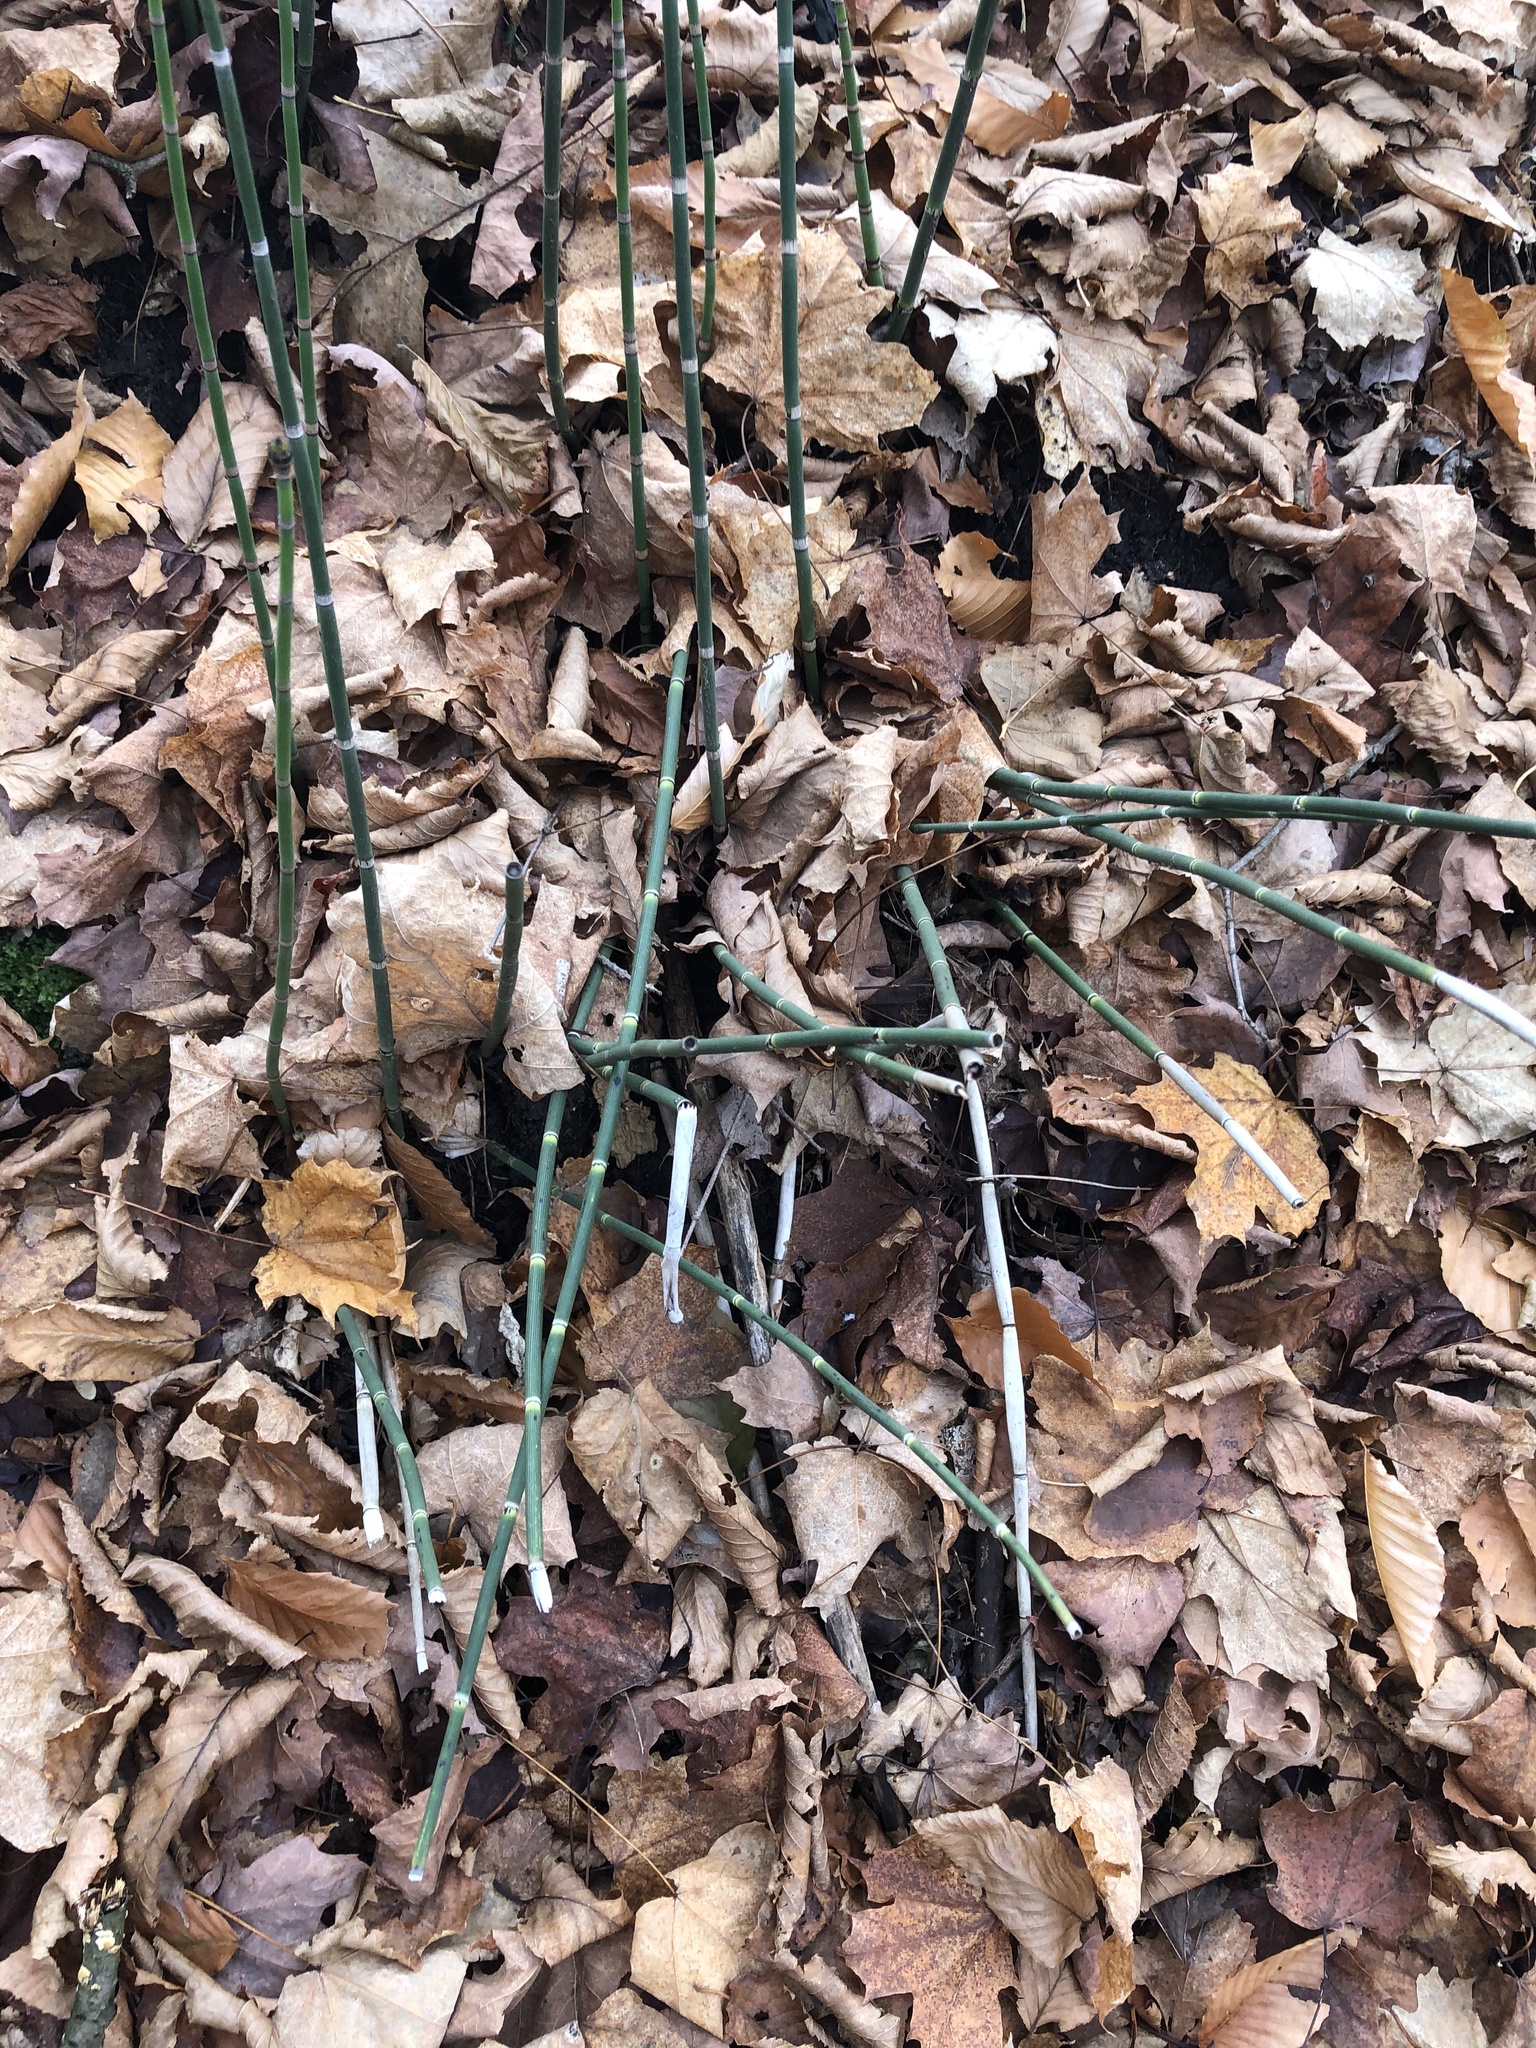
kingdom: Plantae
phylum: Tracheophyta
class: Polypodiopsida
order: Equisetales
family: Equisetaceae
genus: Equisetum
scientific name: Equisetum hyemale
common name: Rough horsetail
